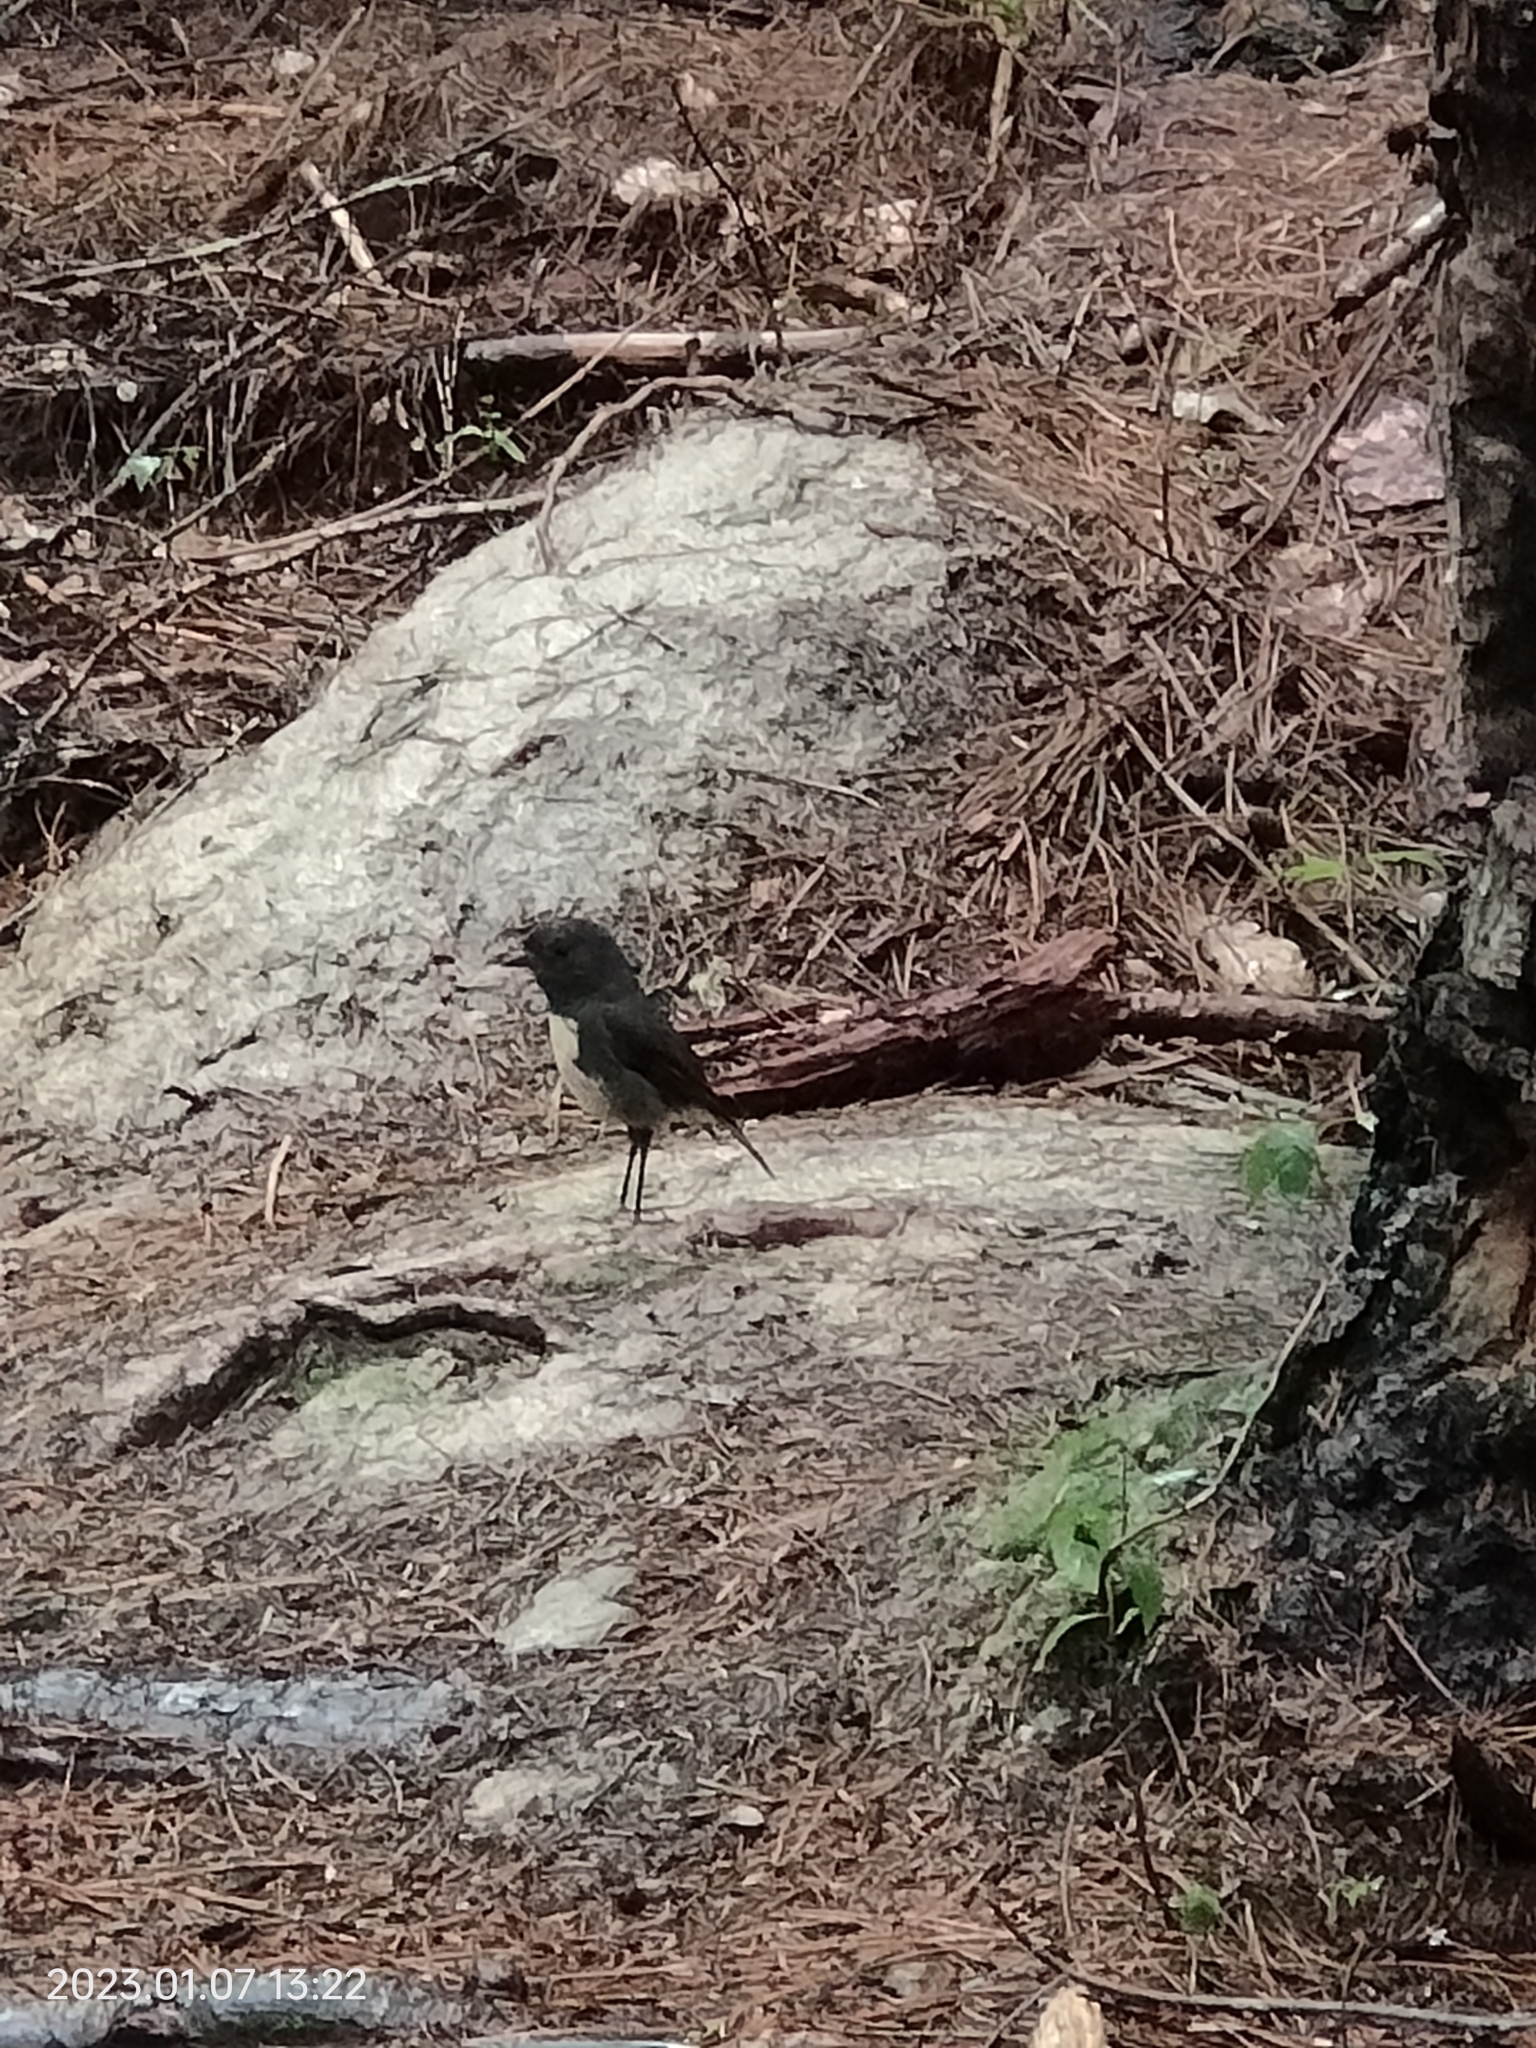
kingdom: Animalia
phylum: Chordata
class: Aves
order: Passeriformes
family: Petroicidae
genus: Petroica
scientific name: Petroica australis
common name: New zealand robin
